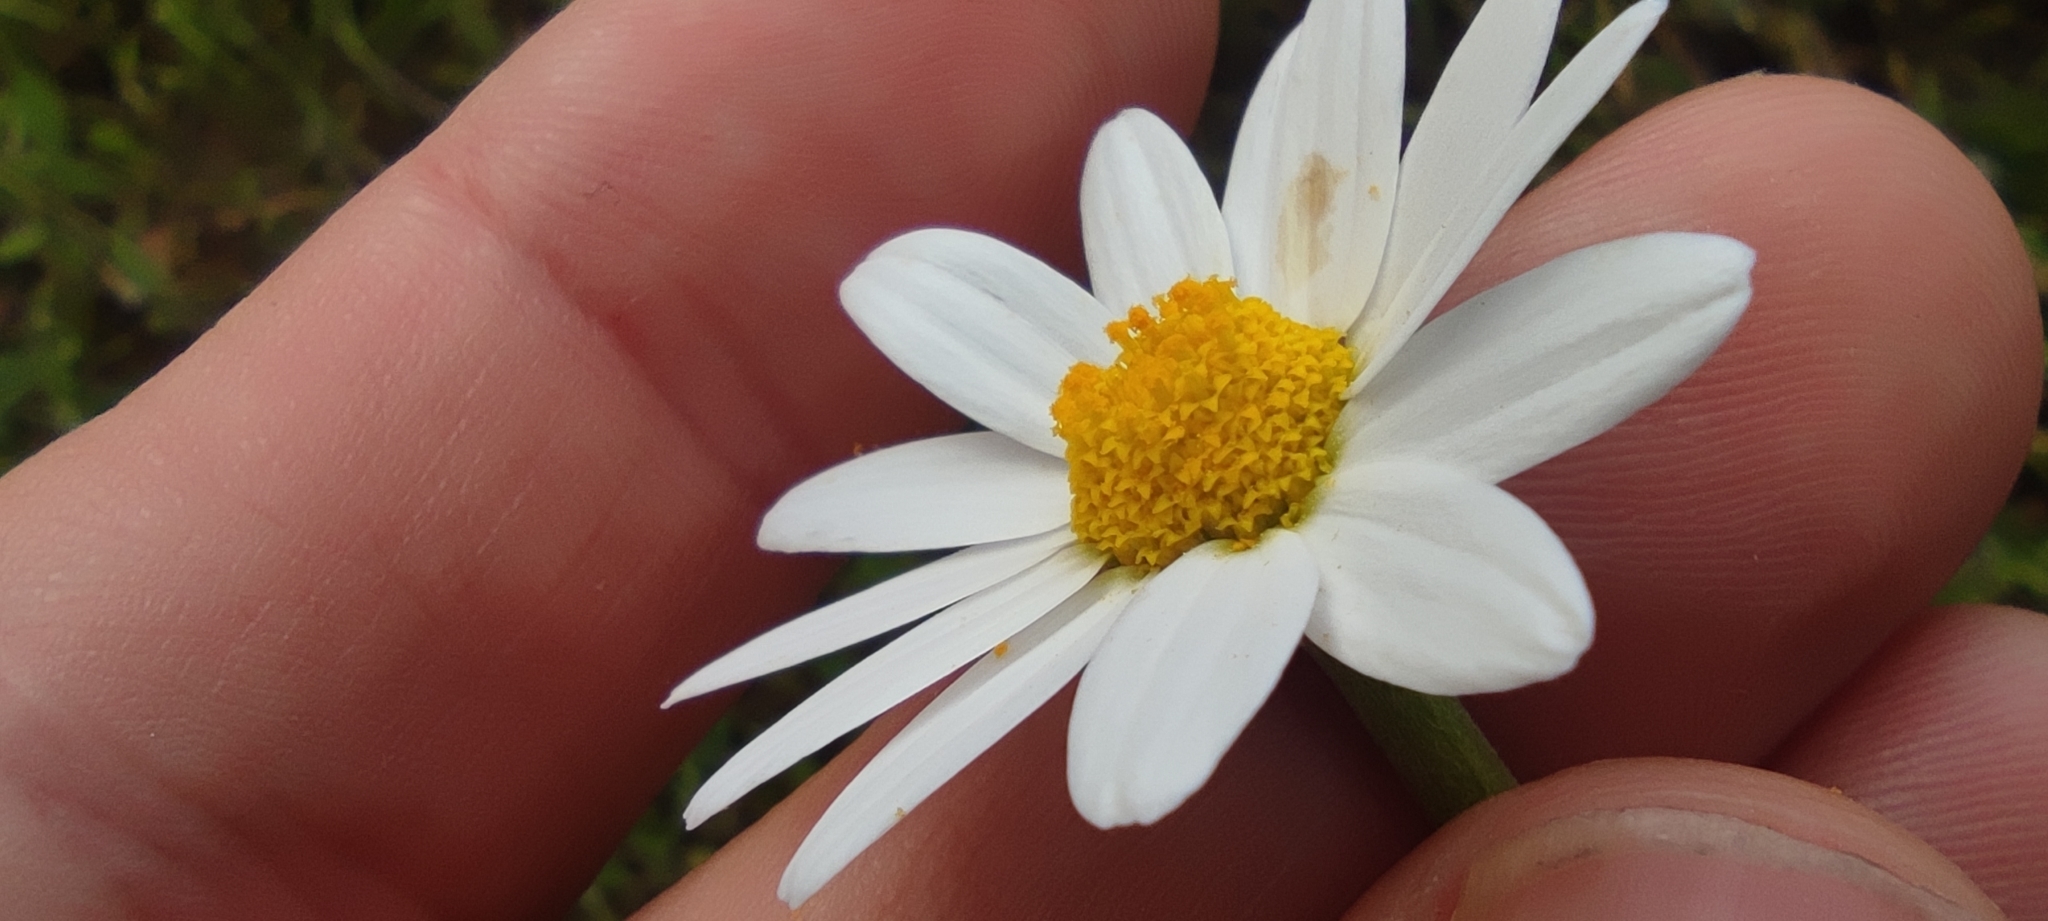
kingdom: Plantae
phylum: Tracheophyta
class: Magnoliopsida
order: Asterales
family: Asteraceae
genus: Anthemis
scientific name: Anthemis arvensis
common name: Corn chamomile
